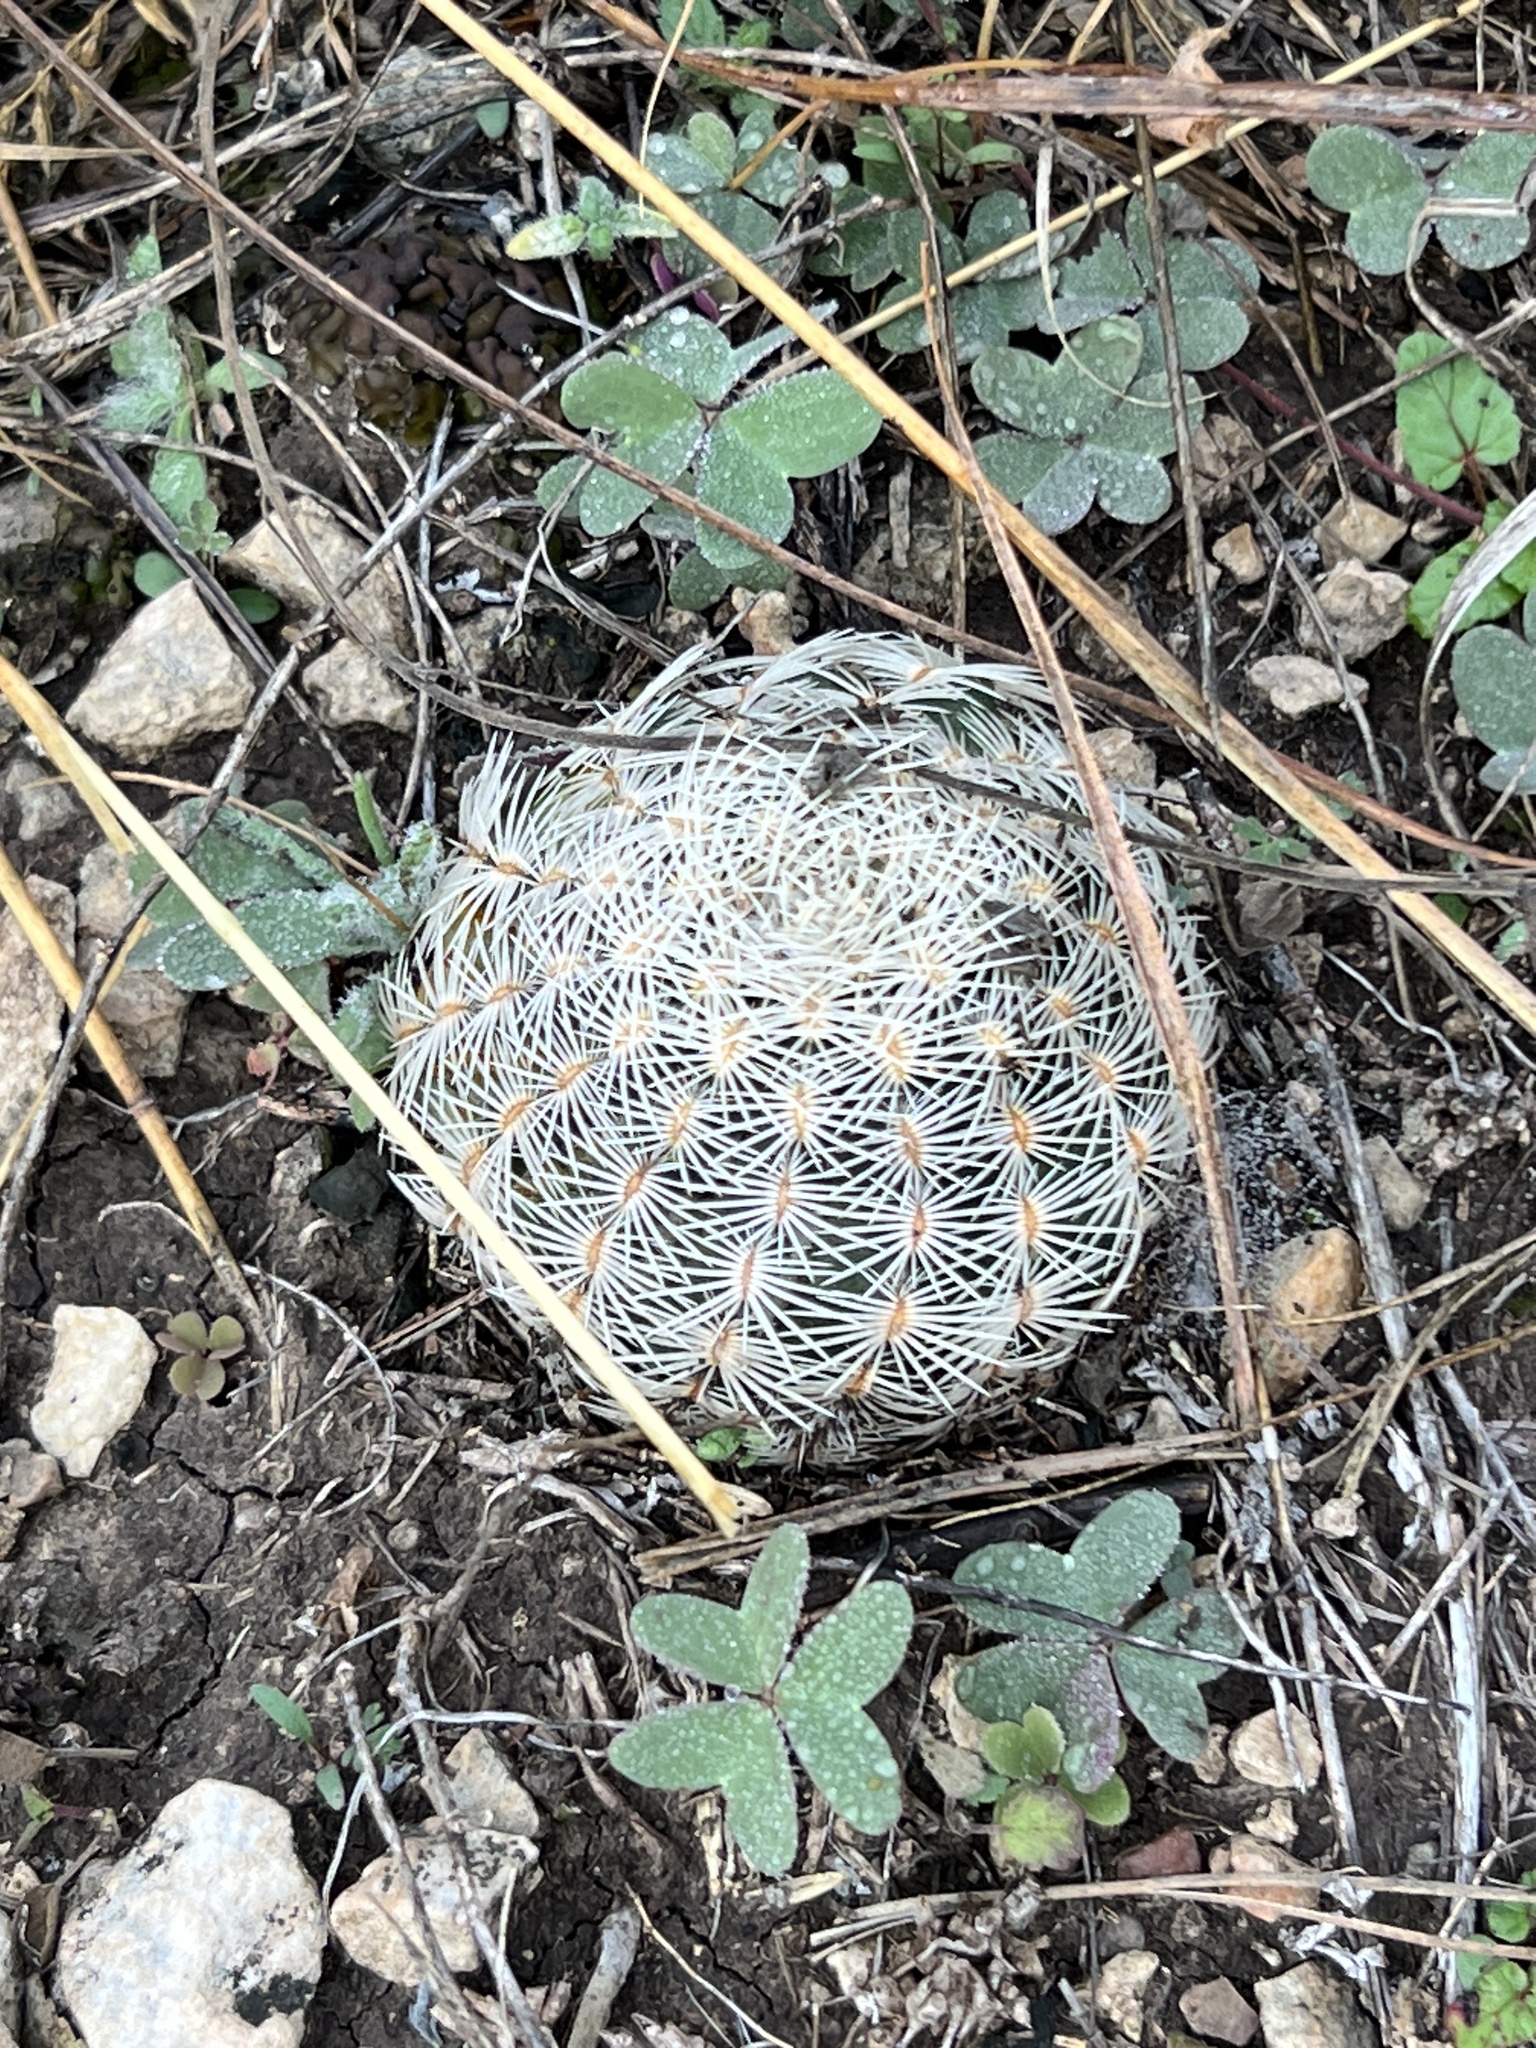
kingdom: Plantae
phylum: Tracheophyta
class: Magnoliopsida
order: Caryophyllales
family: Cactaceae
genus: Echinocereus
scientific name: Echinocereus reichenbachii
